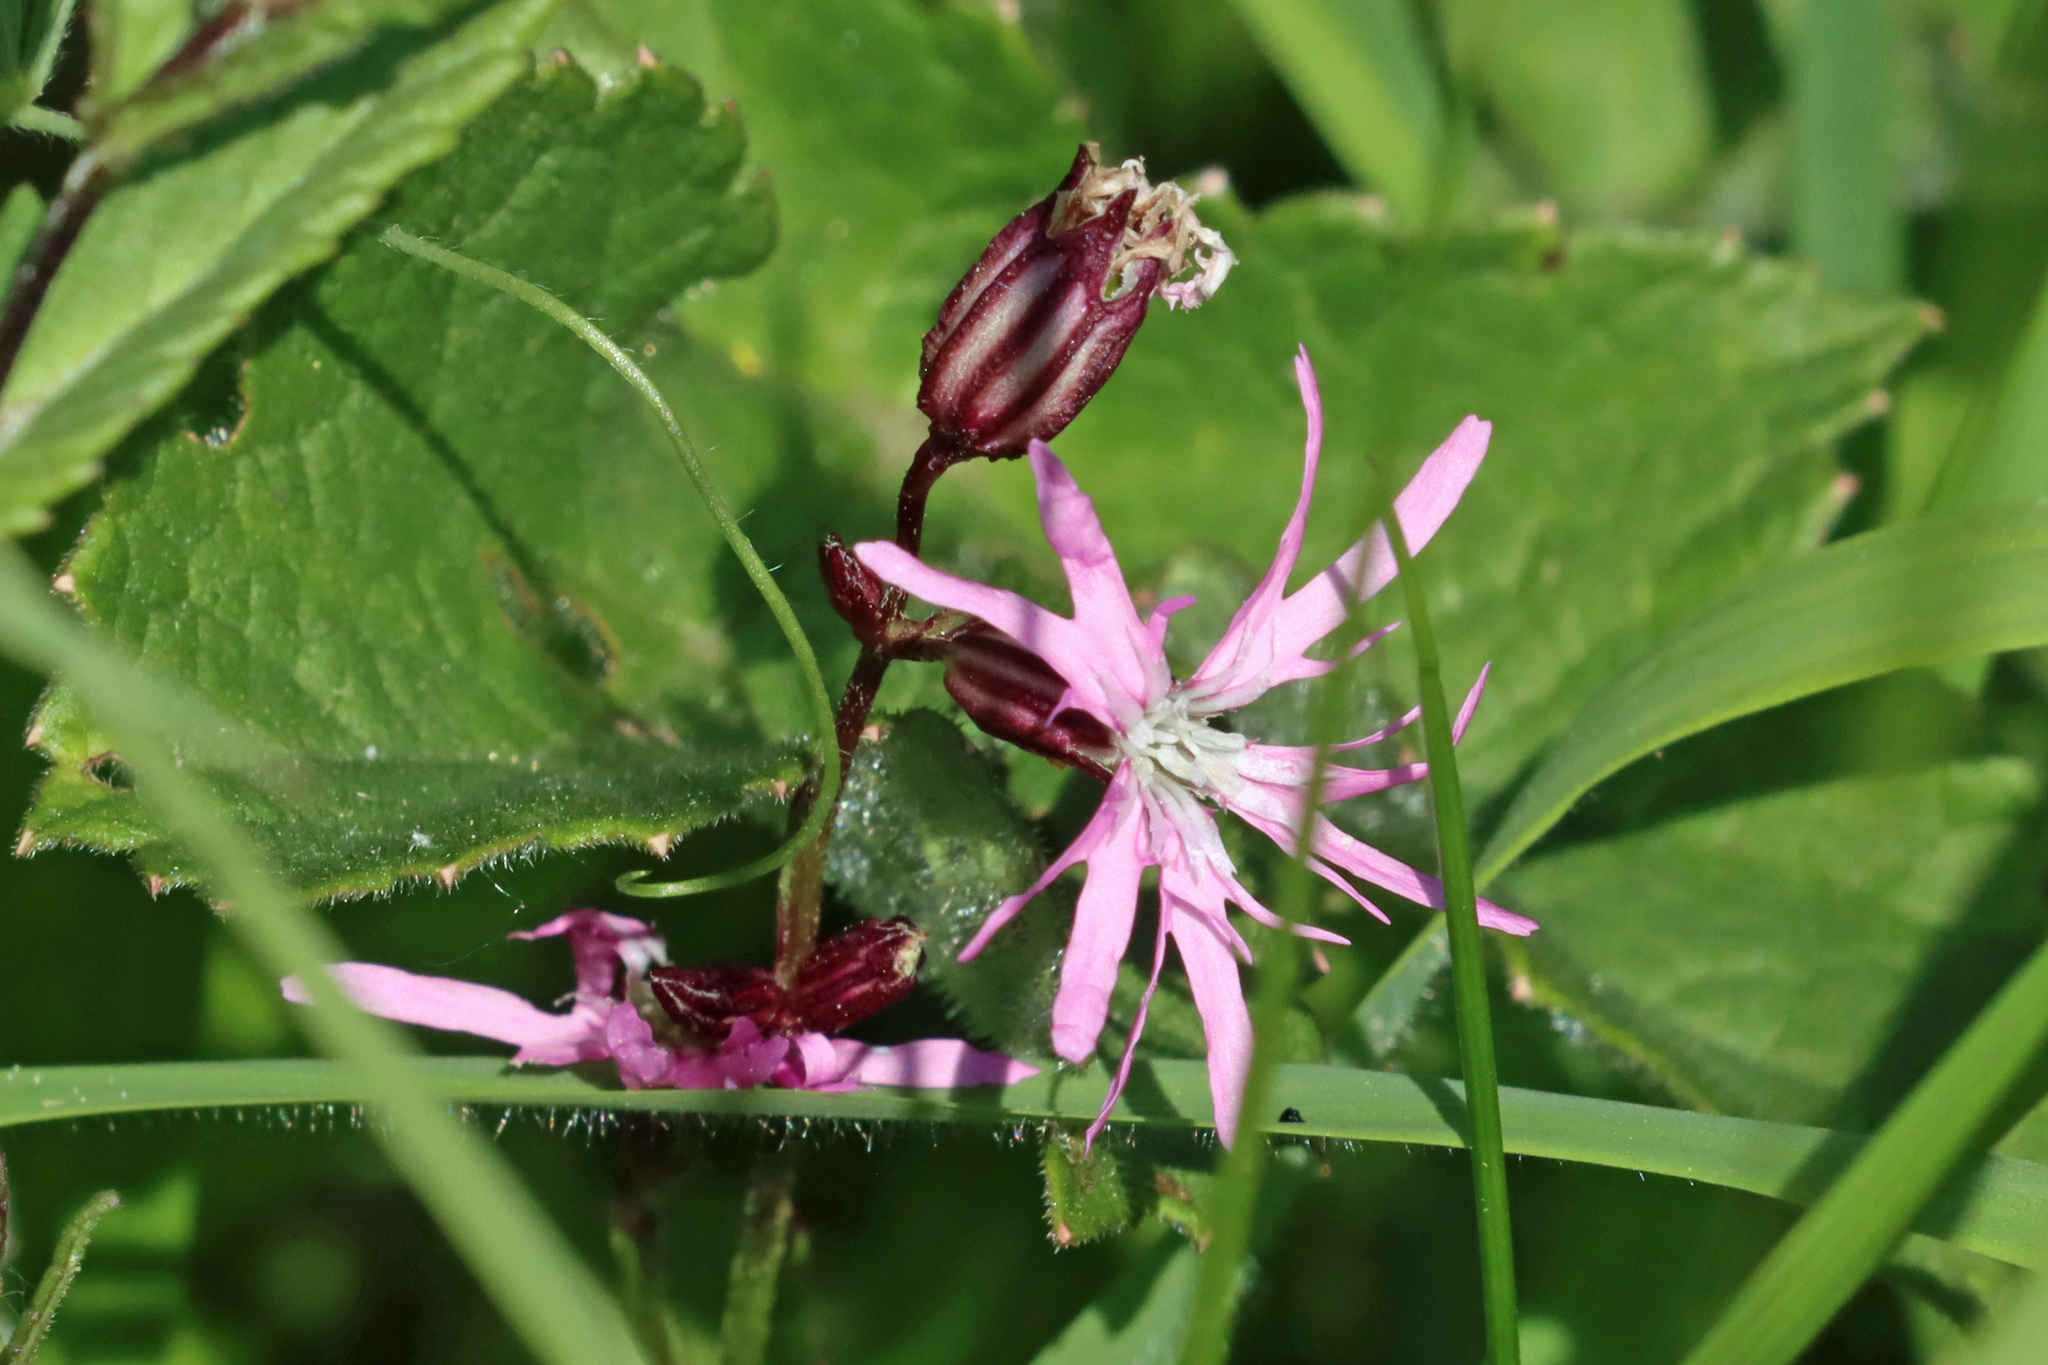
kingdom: Plantae
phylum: Tracheophyta
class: Magnoliopsida
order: Caryophyllales
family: Caryophyllaceae
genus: Silene
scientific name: Silene flos-cuculi
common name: Ragged-robin
